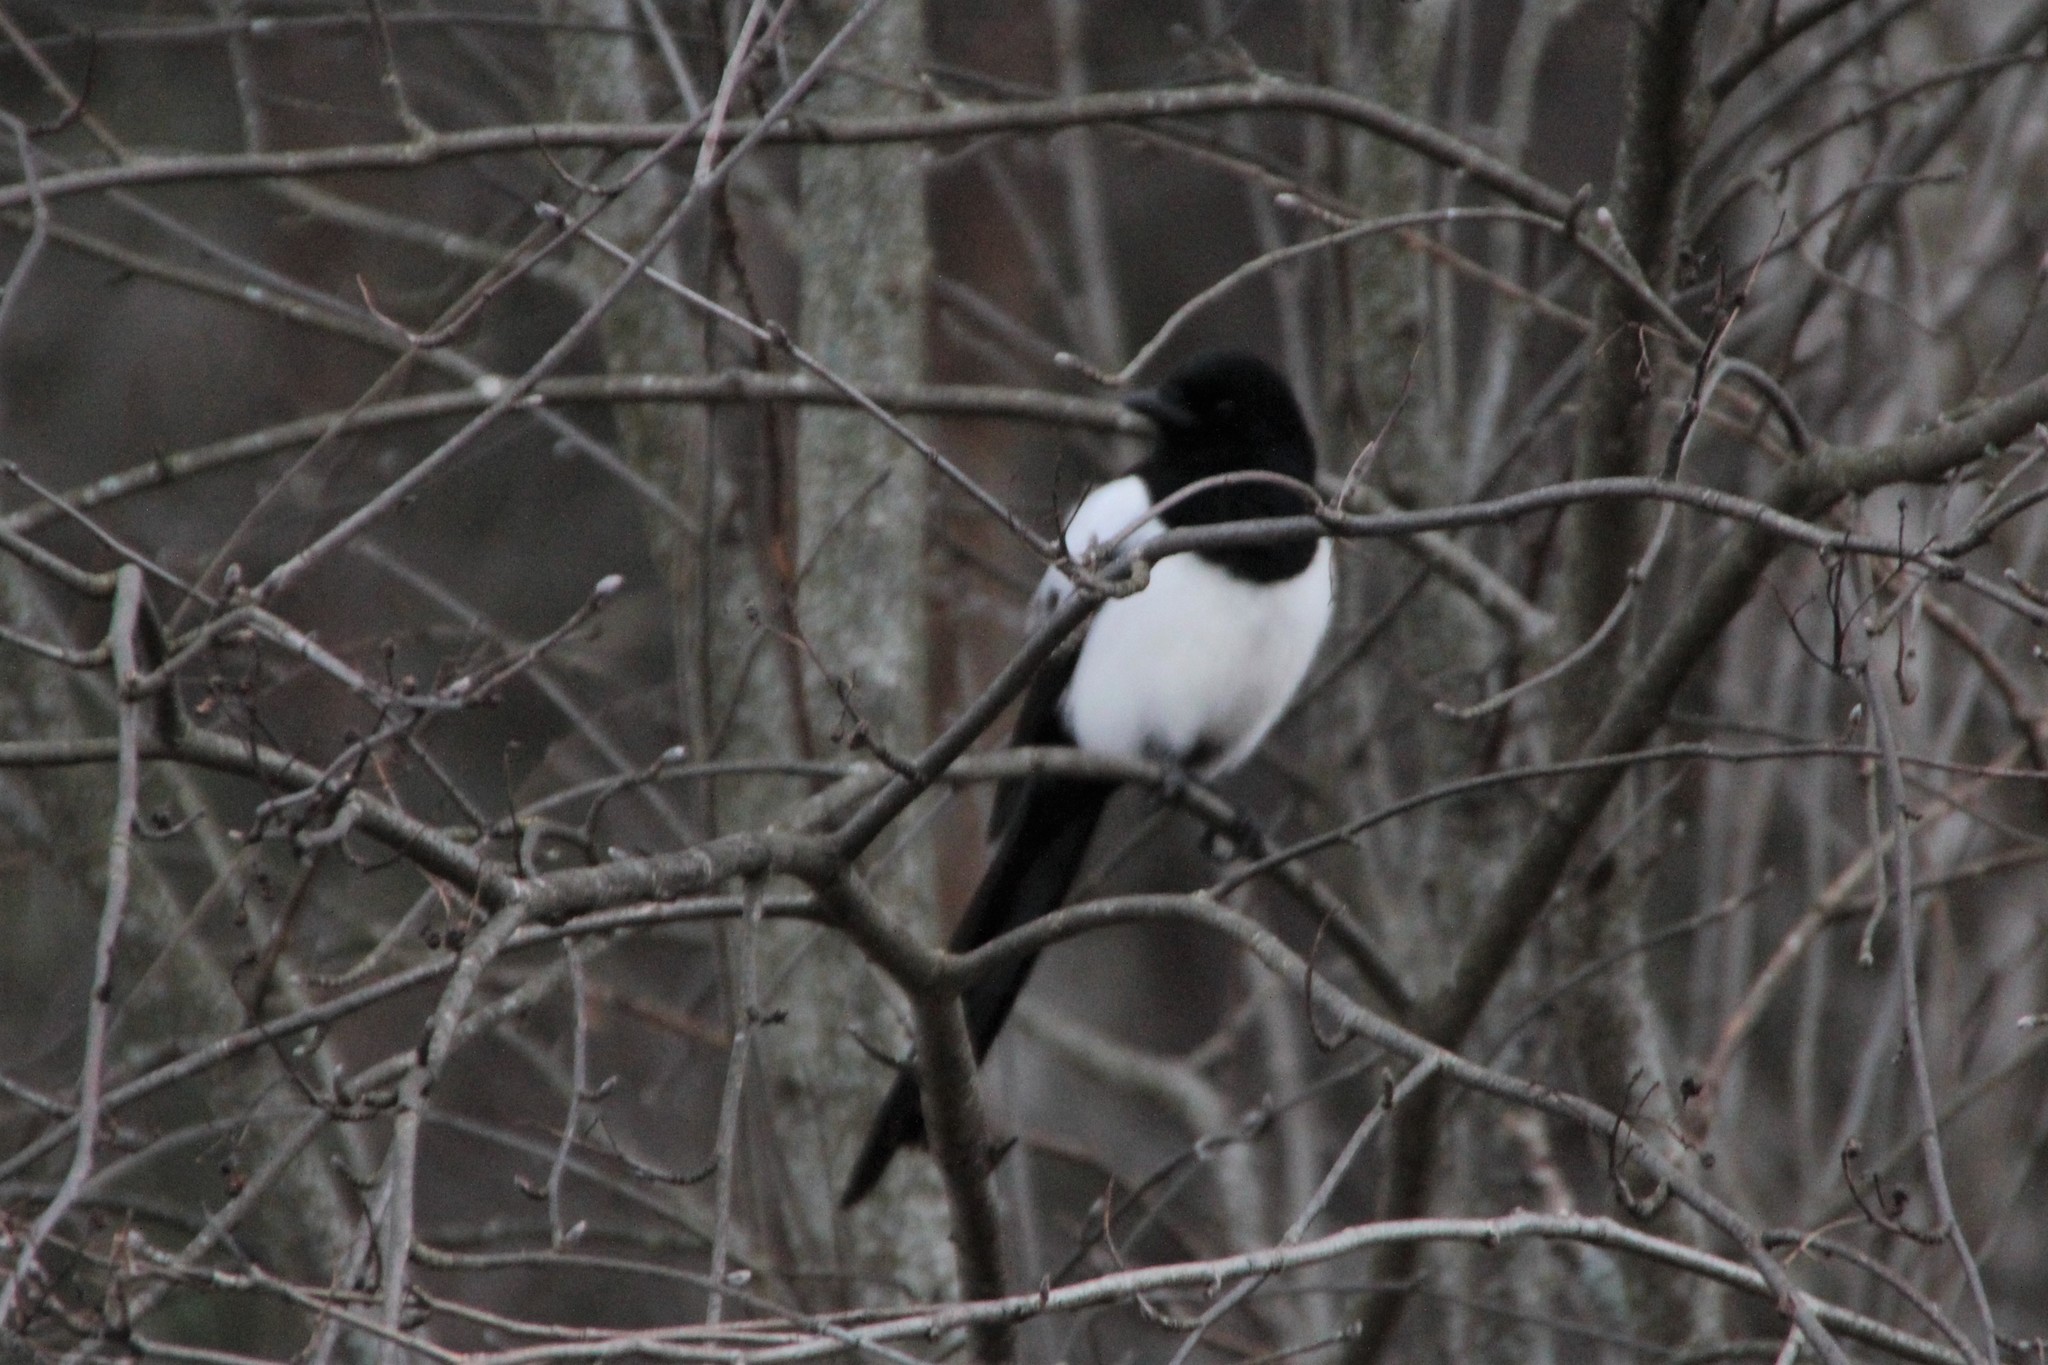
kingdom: Animalia
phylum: Chordata
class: Aves
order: Passeriformes
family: Corvidae
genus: Pica
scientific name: Pica pica
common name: Eurasian magpie
